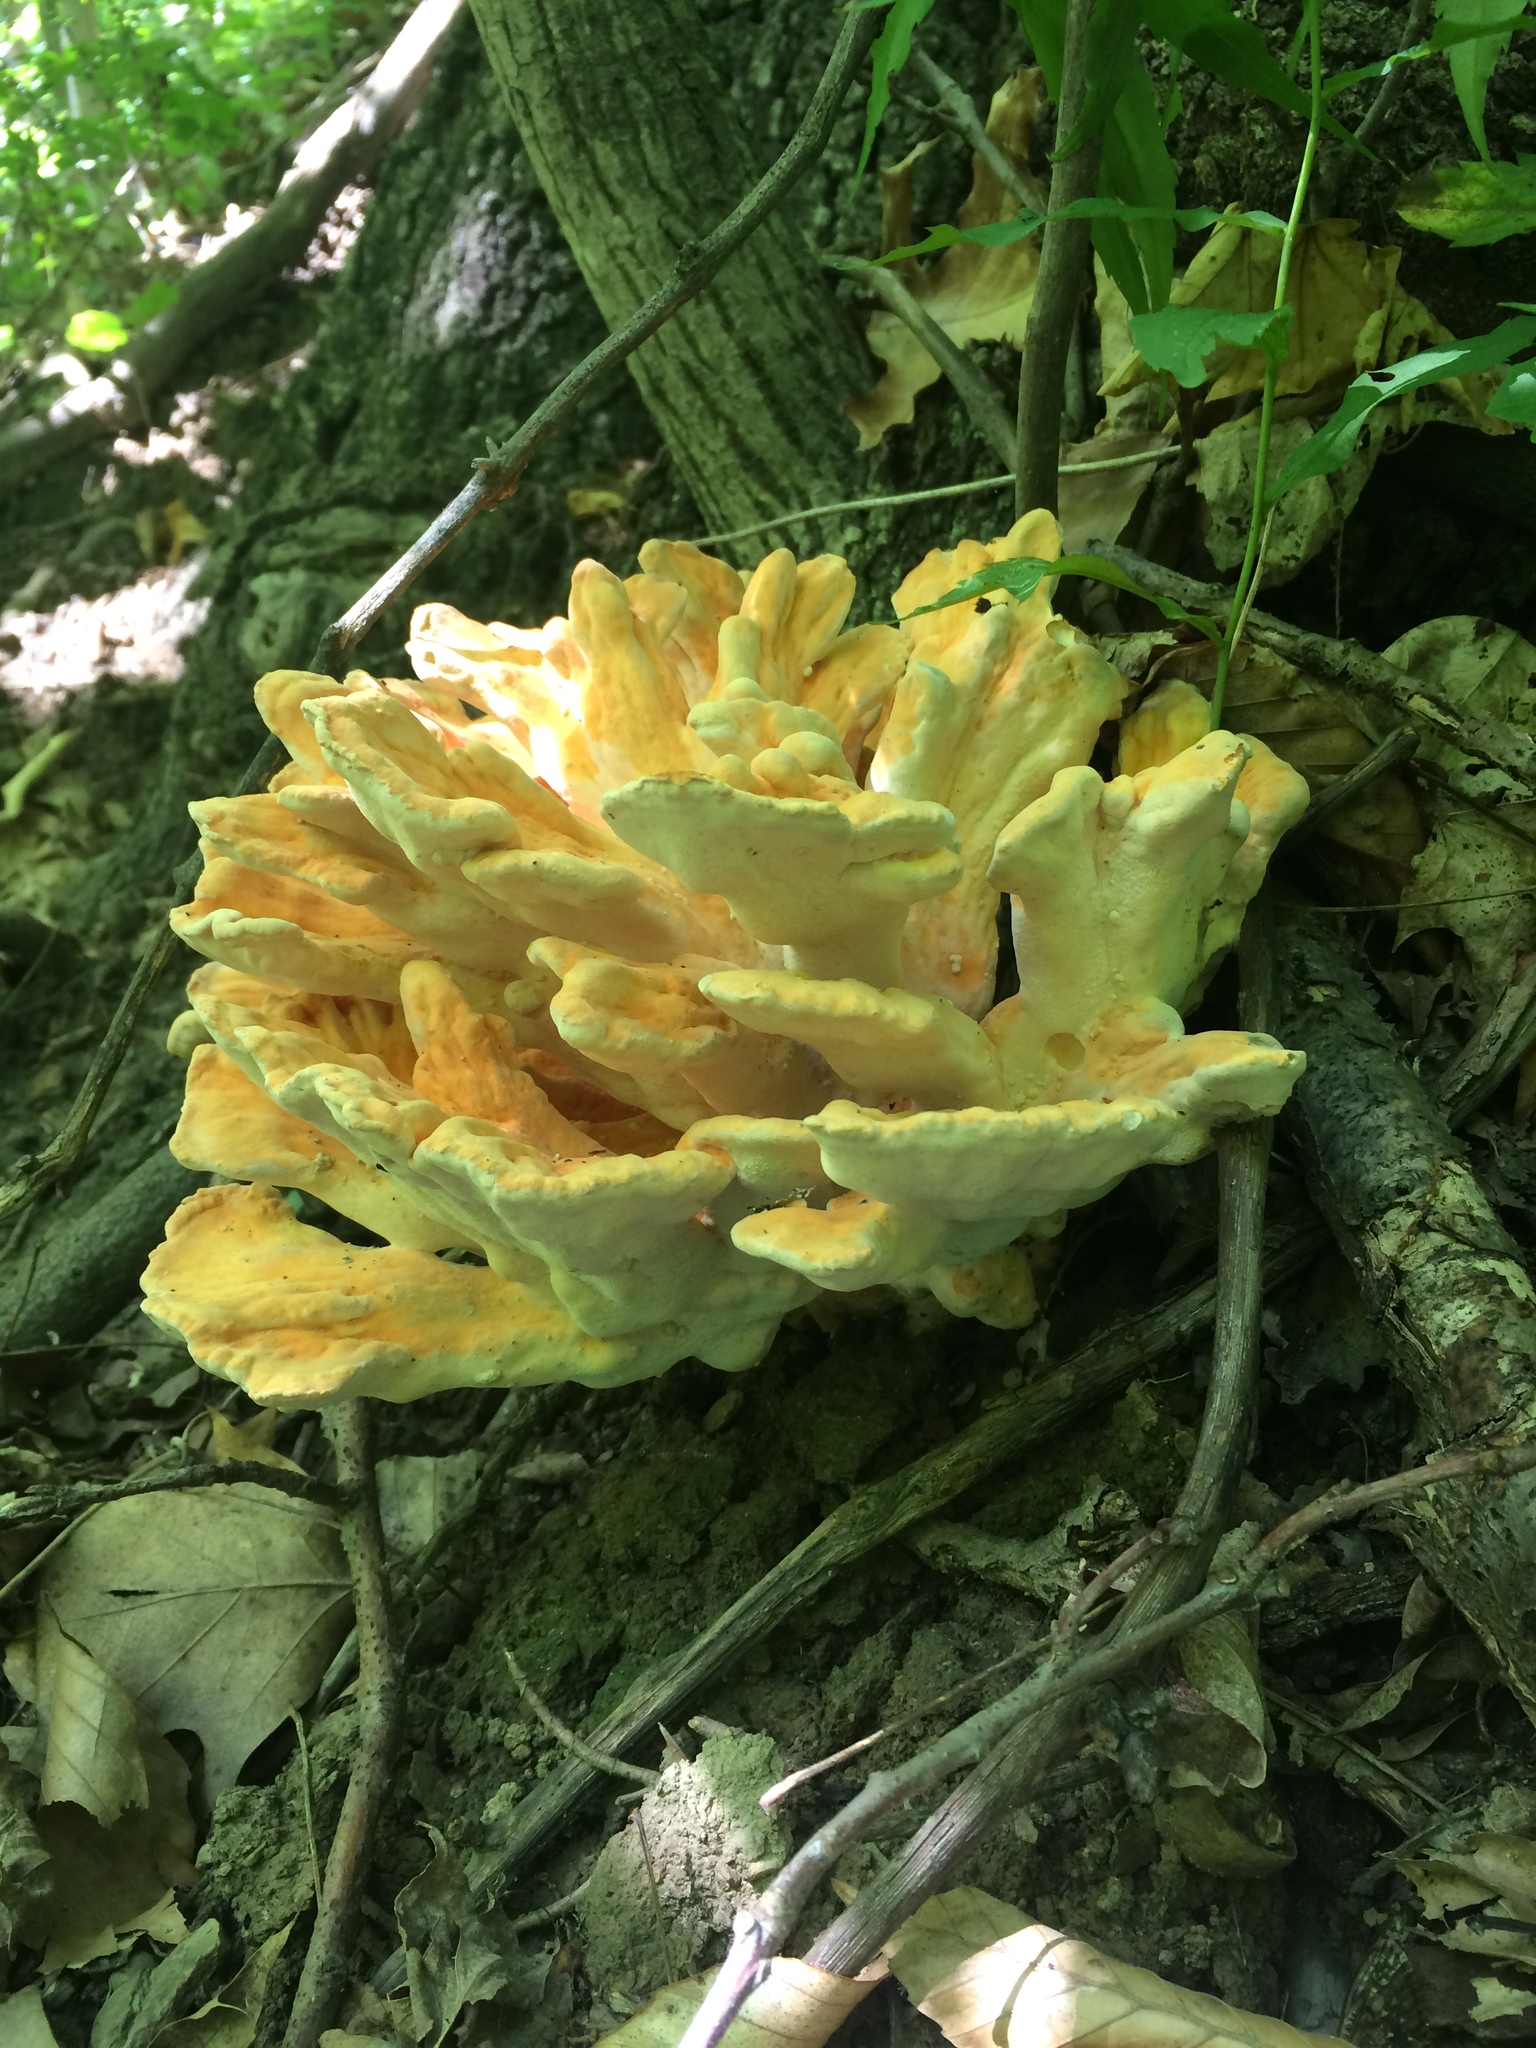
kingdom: Fungi
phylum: Basidiomycota
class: Agaricomycetes
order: Polyporales
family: Laetiporaceae
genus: Laetiporus
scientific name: Laetiporus sulphureus
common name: Chicken of the woods
